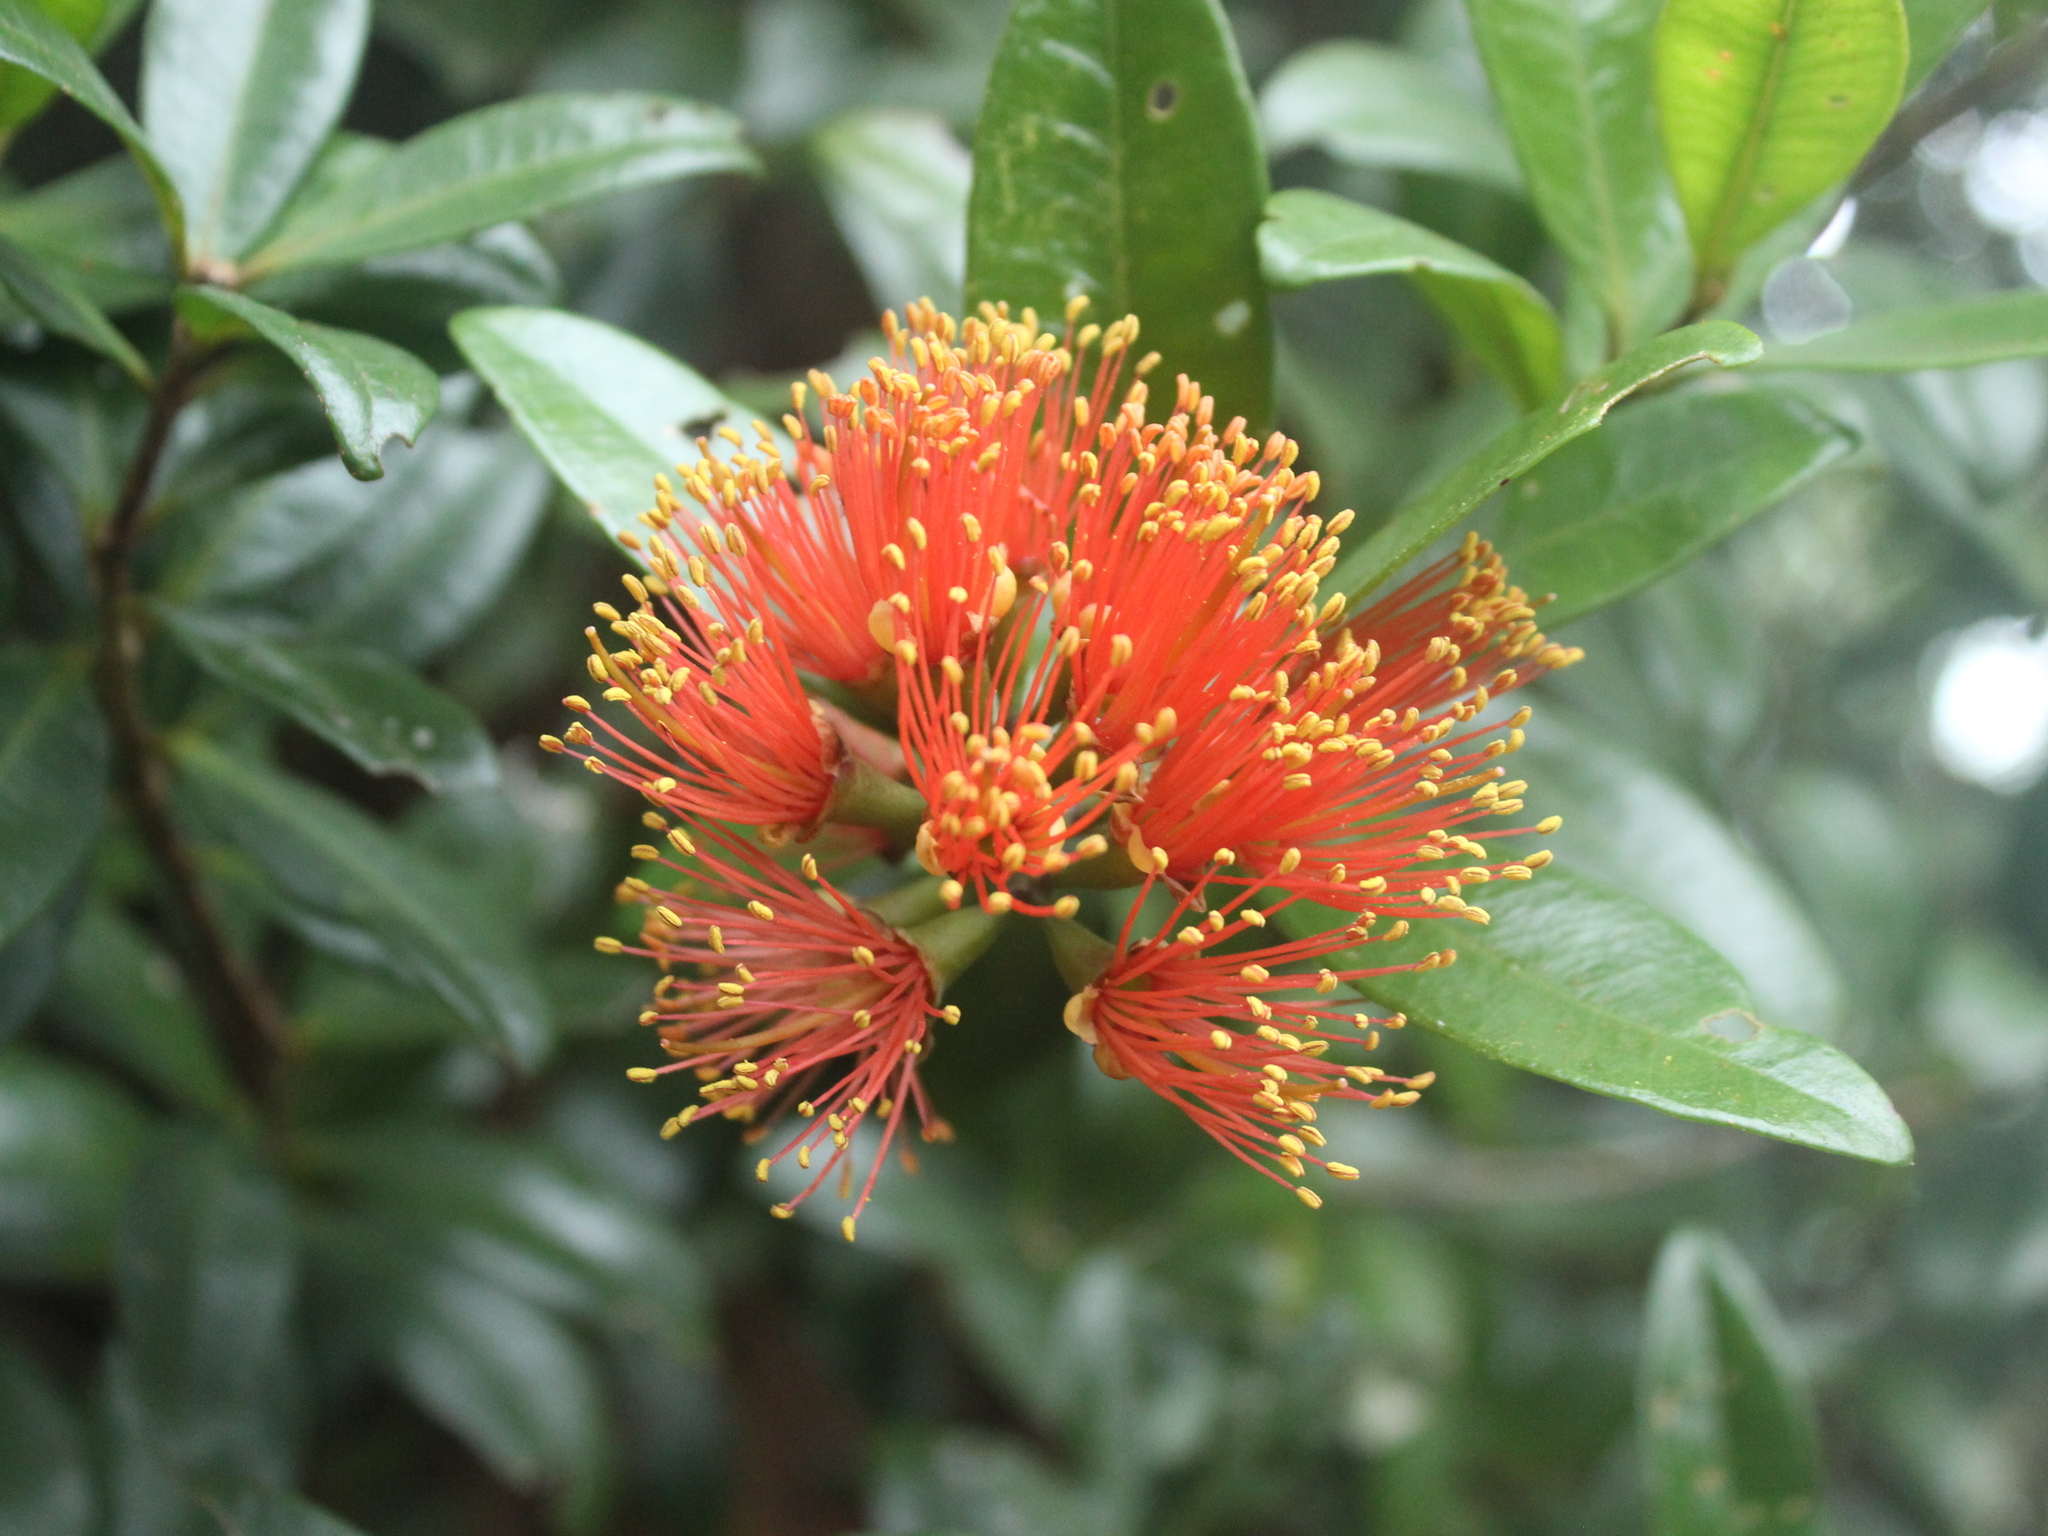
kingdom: Plantae
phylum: Tracheophyta
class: Magnoliopsida
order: Myrtales
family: Myrtaceae
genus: Metrosideros
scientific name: Metrosideros fulgens
